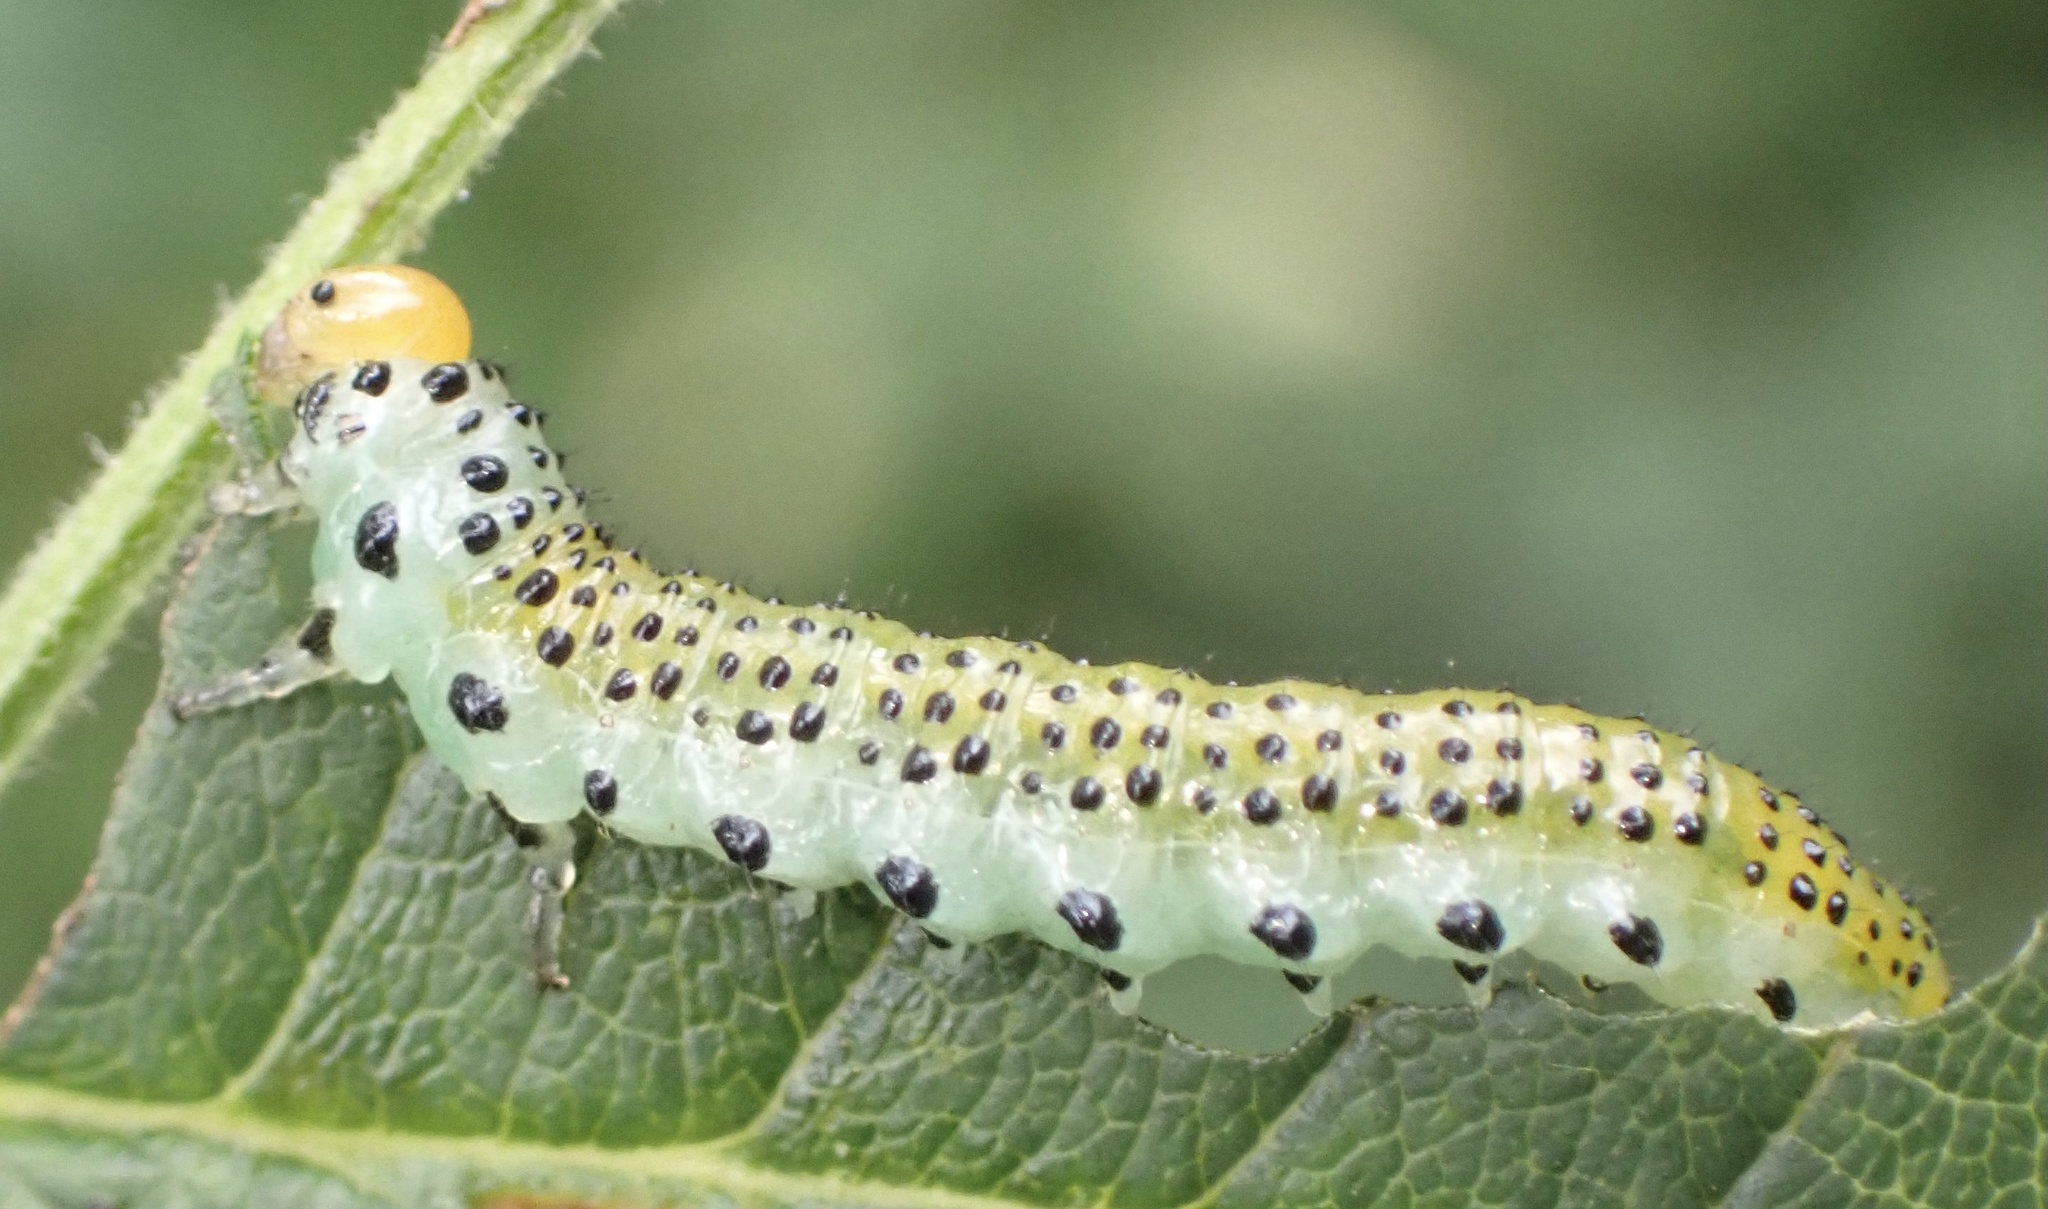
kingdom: Animalia
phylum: Arthropoda
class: Insecta
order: Hymenoptera
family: Argidae
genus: Arge
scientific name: Arge pagana
